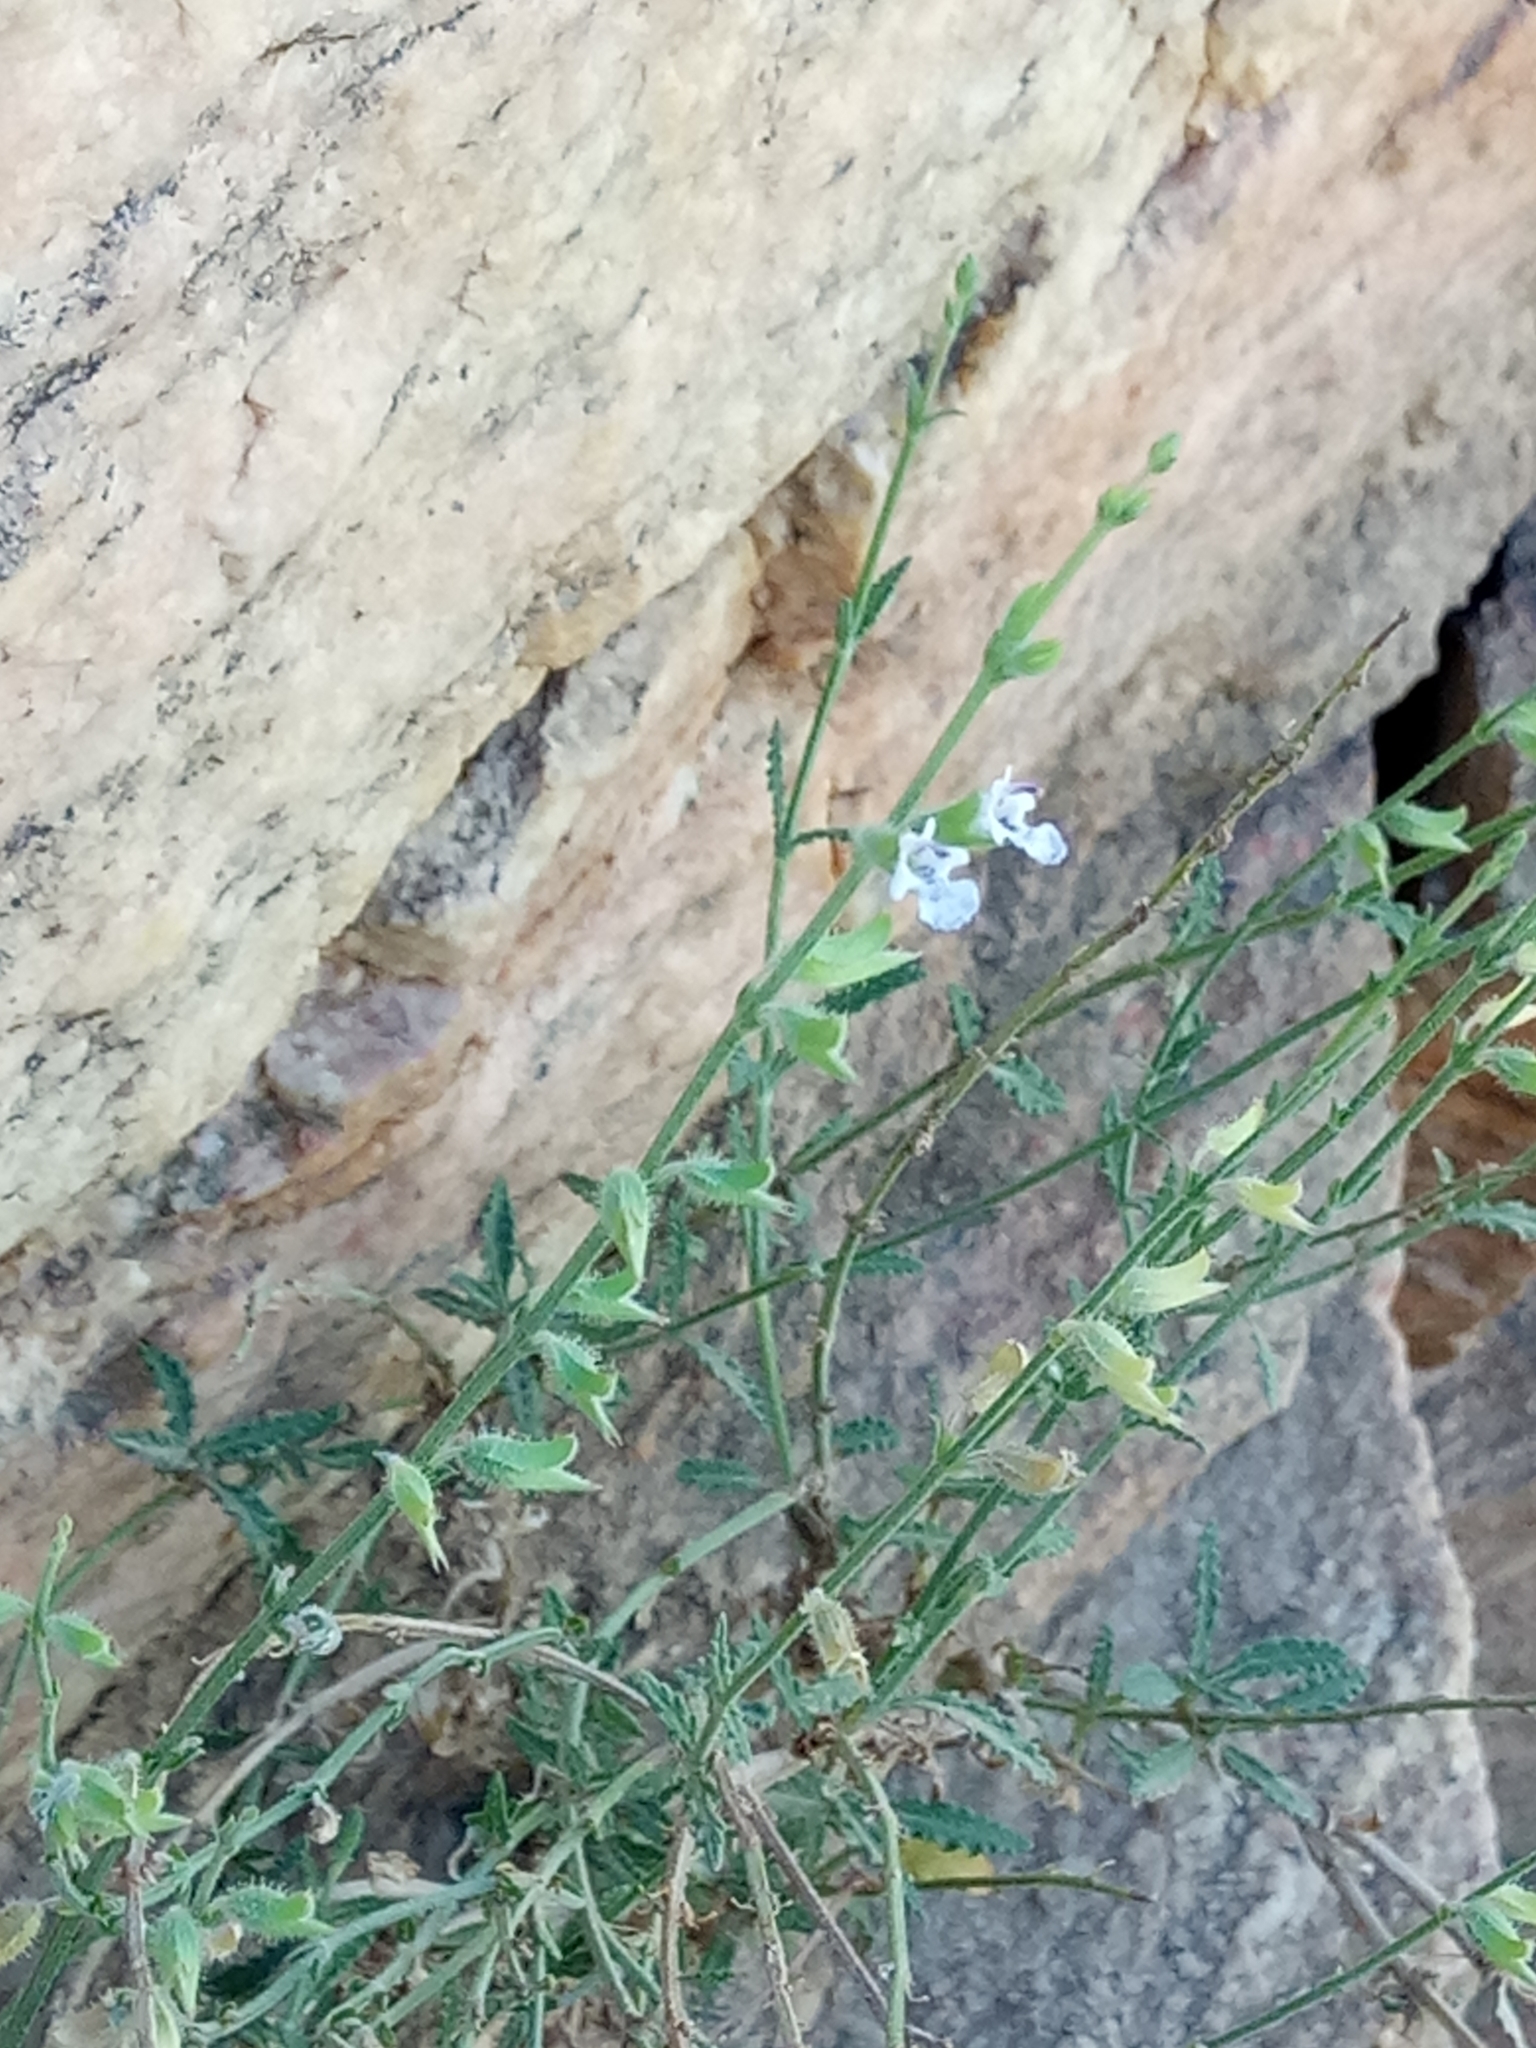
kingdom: Plantae
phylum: Tracheophyta
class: Magnoliopsida
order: Lamiales
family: Lamiaceae
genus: Salvia
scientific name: Salvia aegyptiaca
